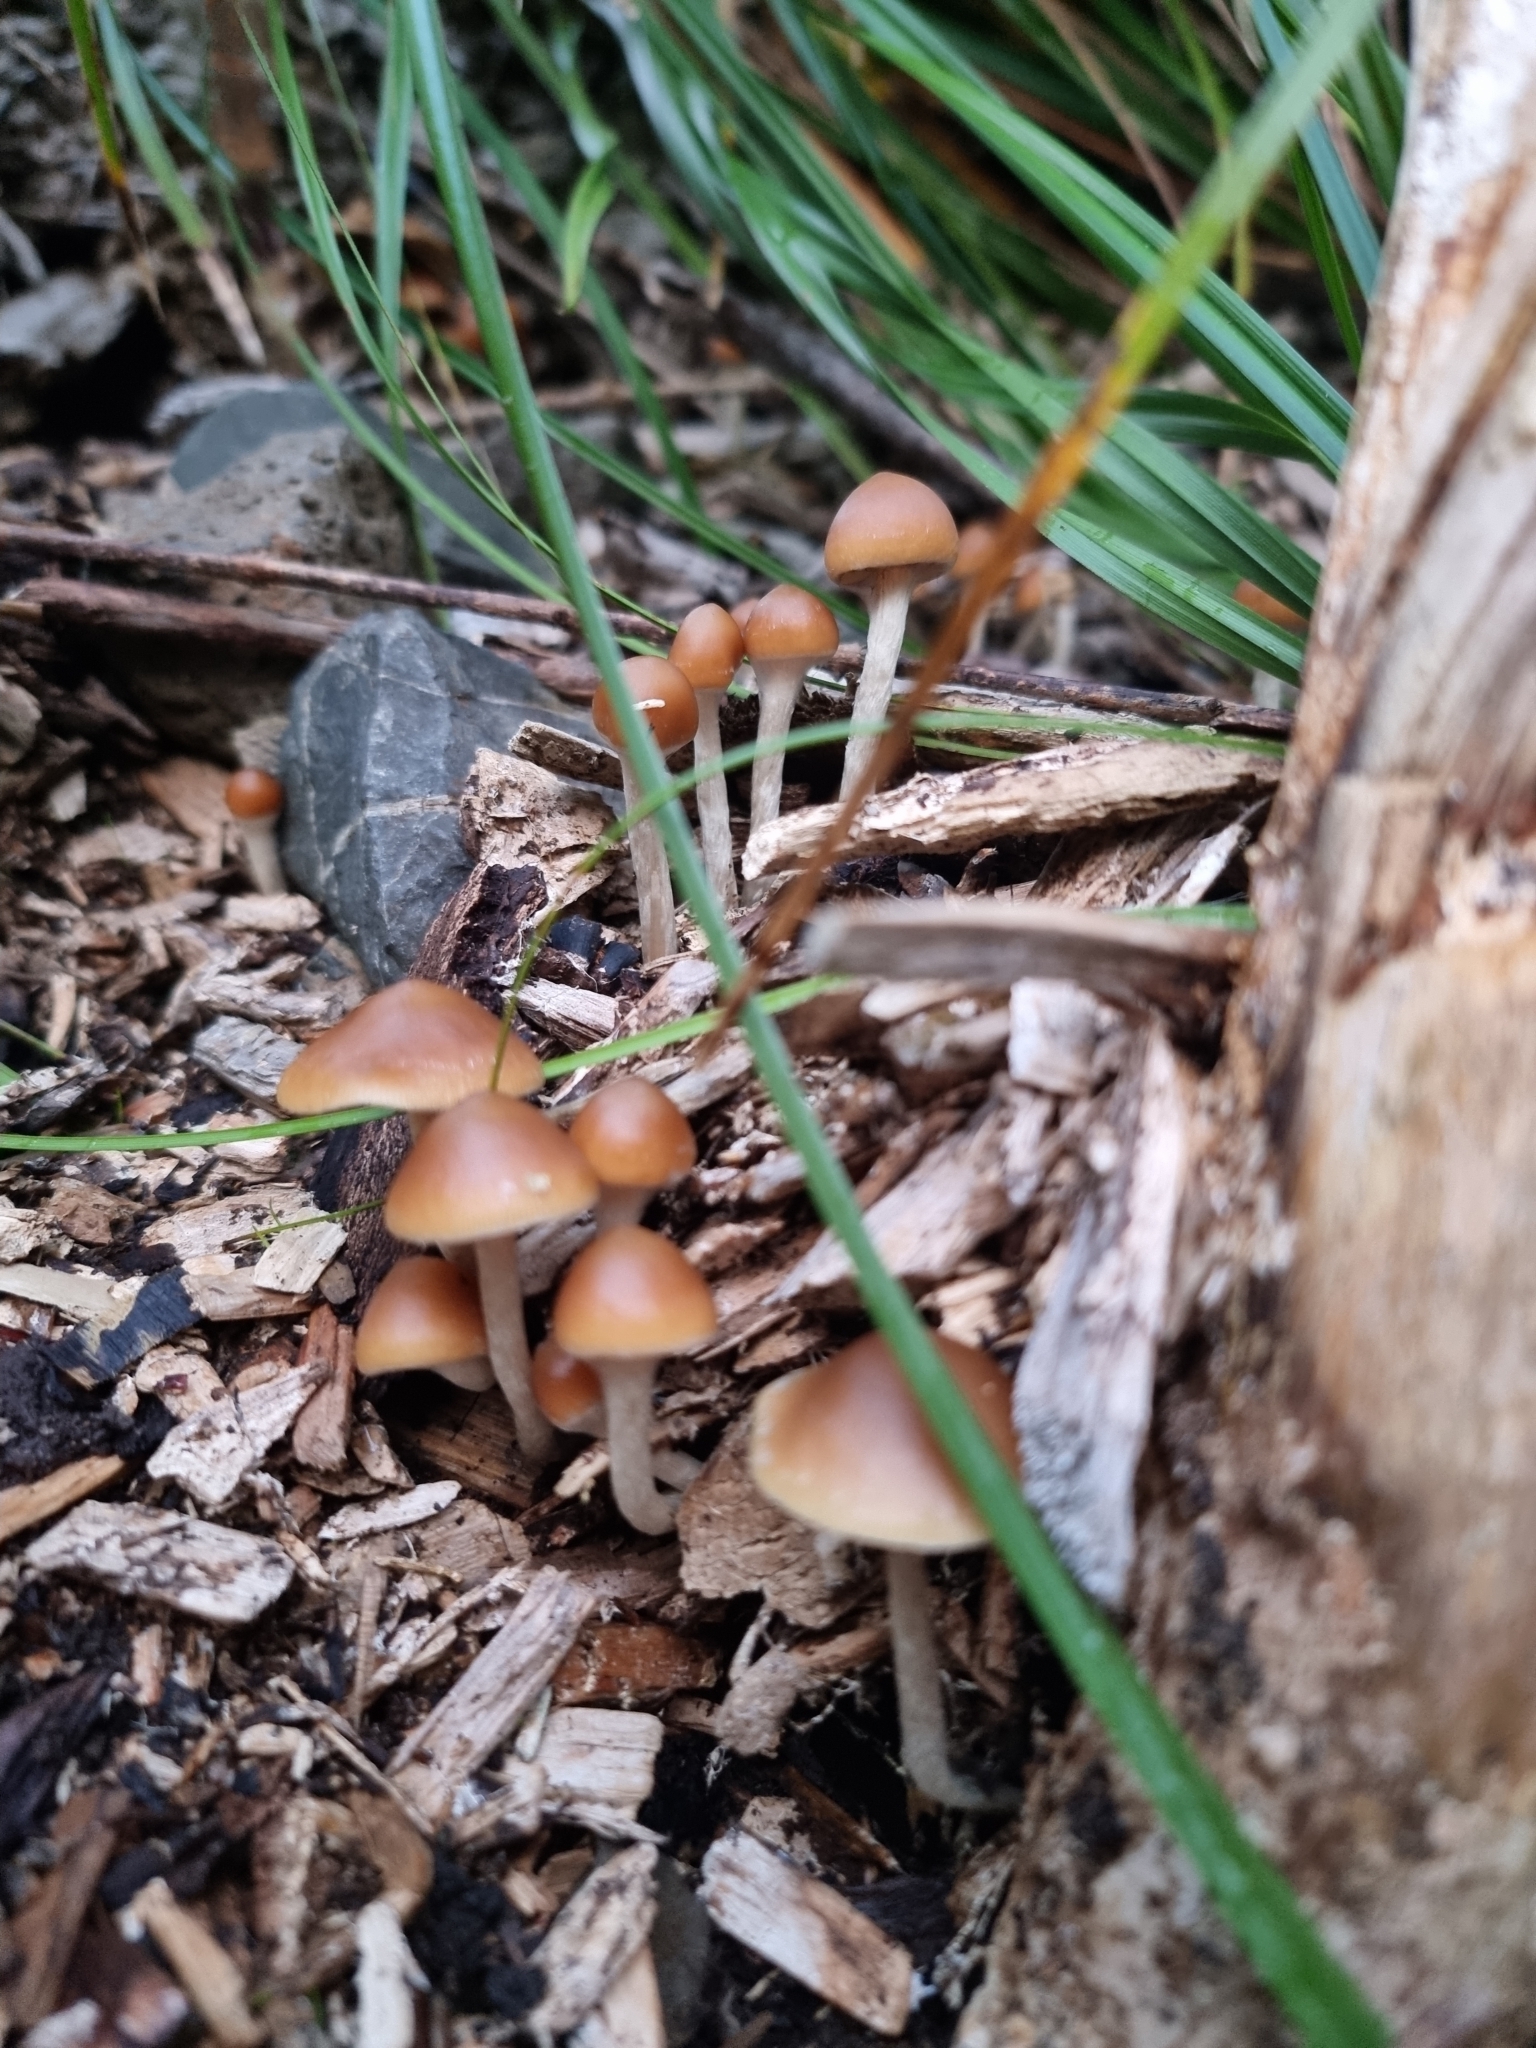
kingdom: Fungi
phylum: Basidiomycota
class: Agaricomycetes
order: Agaricales
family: Hymenogastraceae
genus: Psilocybe
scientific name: Psilocybe subaeruginosa
